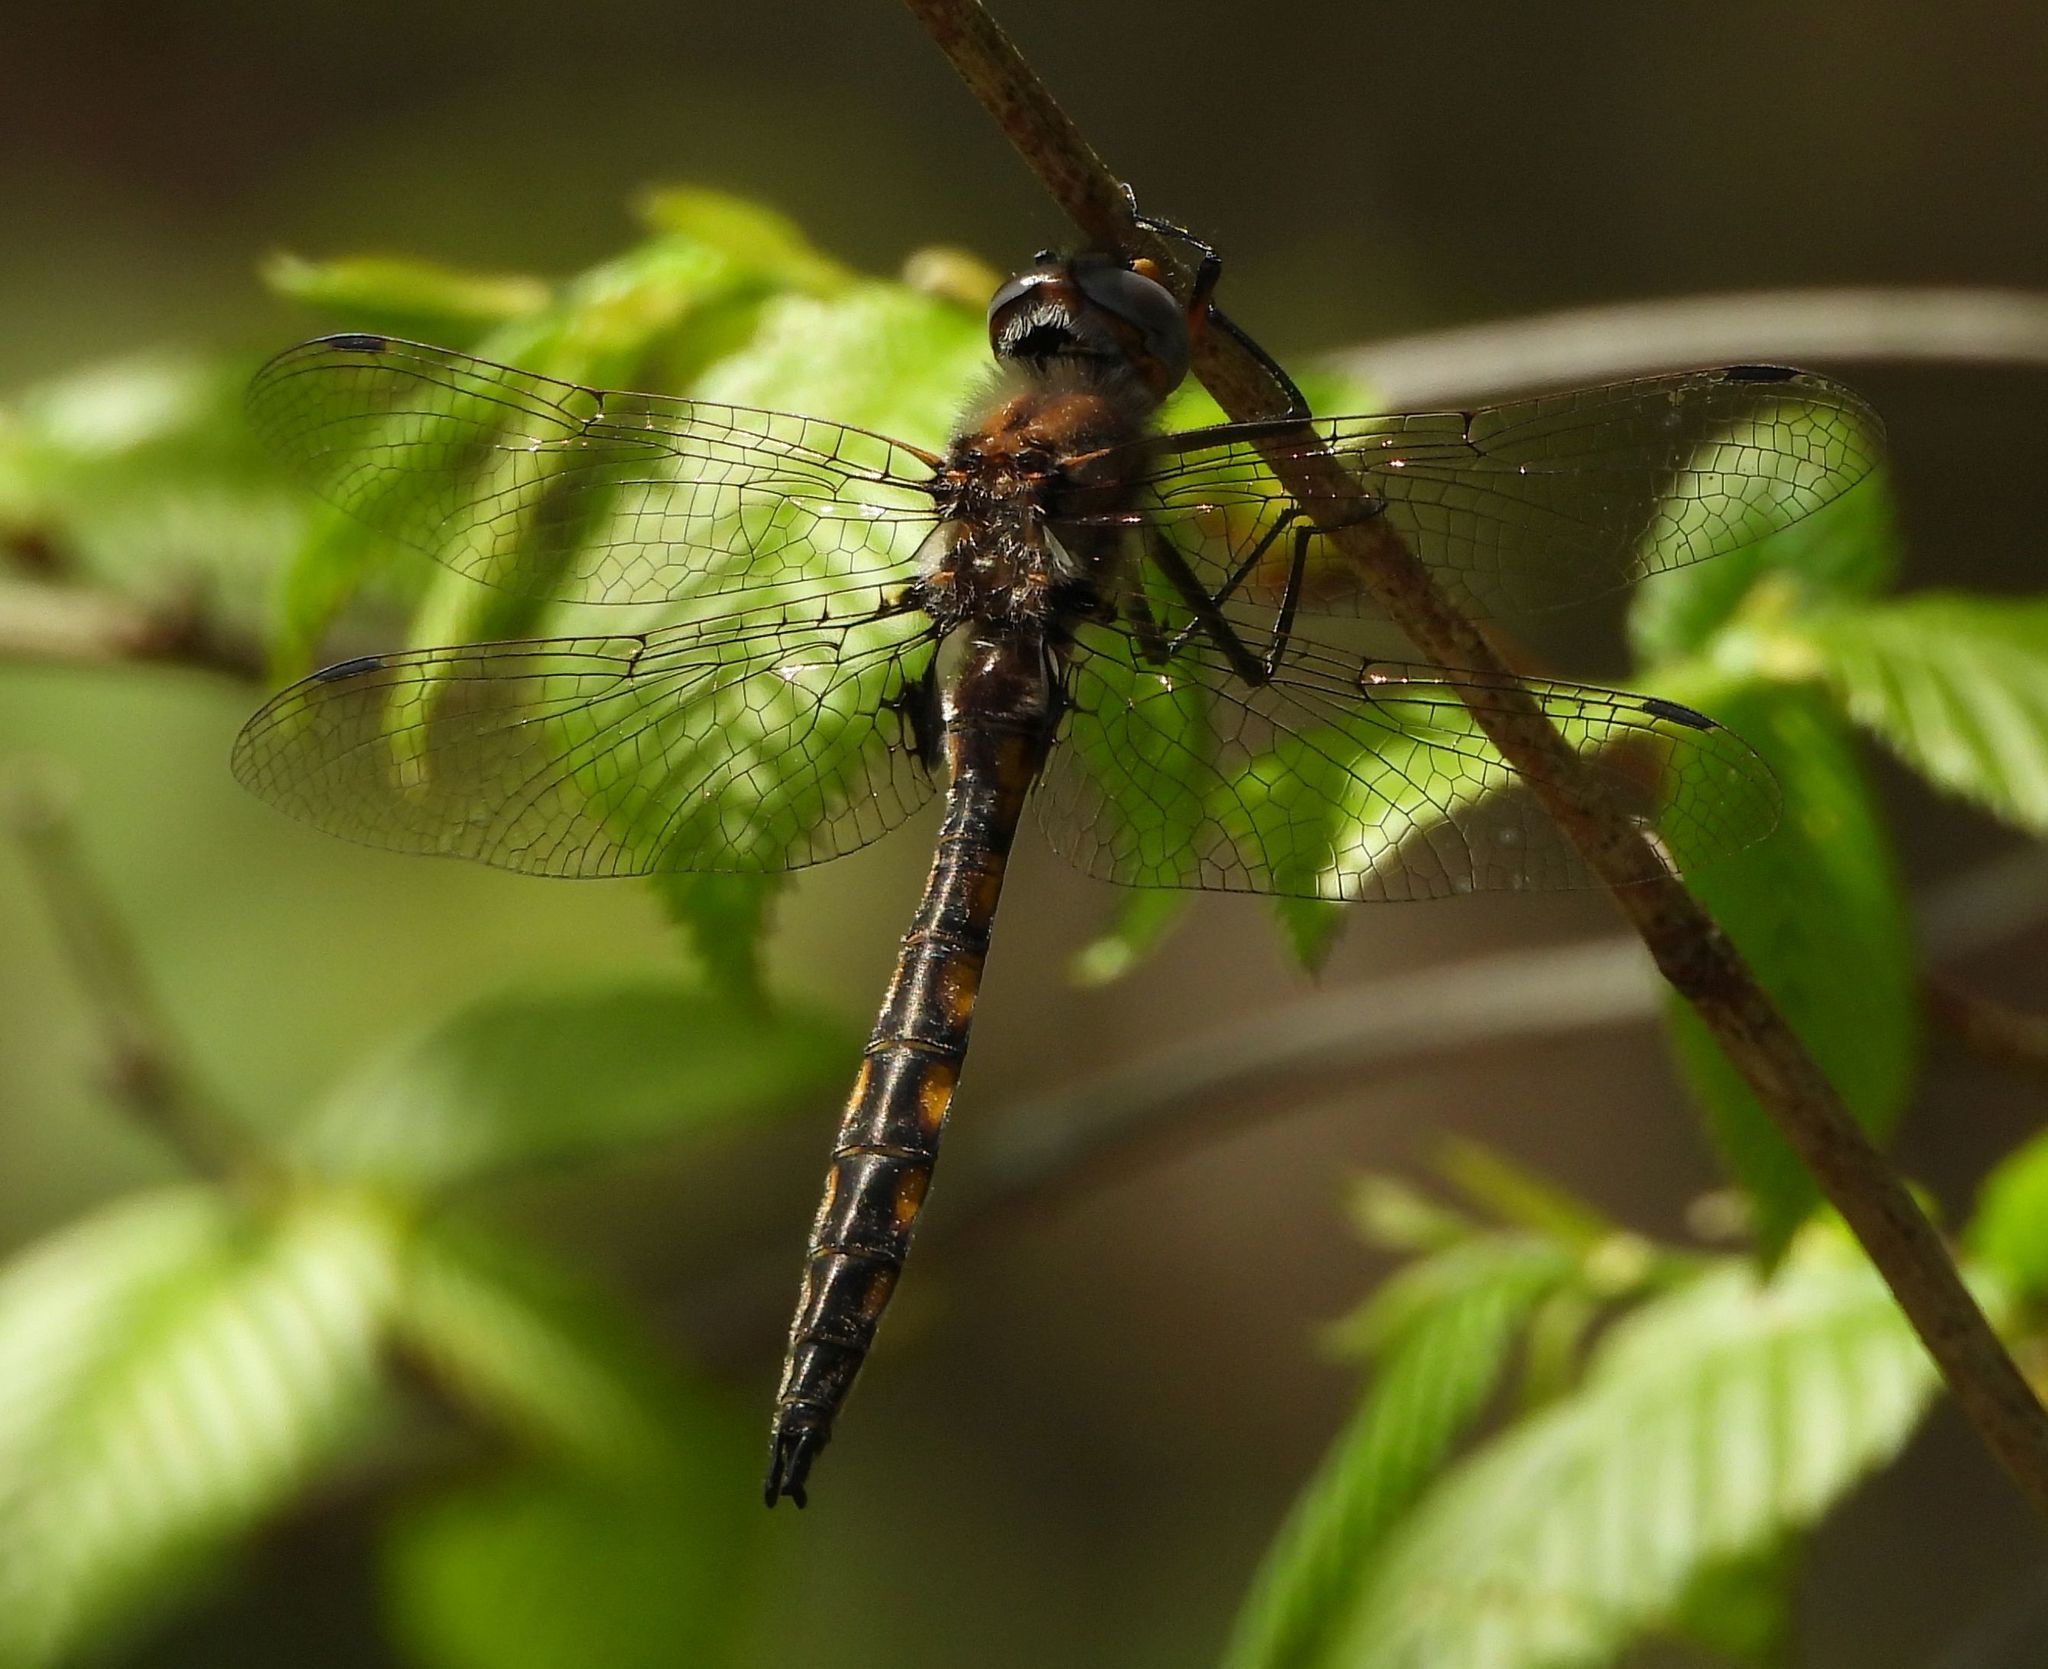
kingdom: Animalia
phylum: Arthropoda
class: Insecta
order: Odonata
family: Corduliidae
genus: Epitheca
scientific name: Epitheca canis
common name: Beaverpond baskettail
